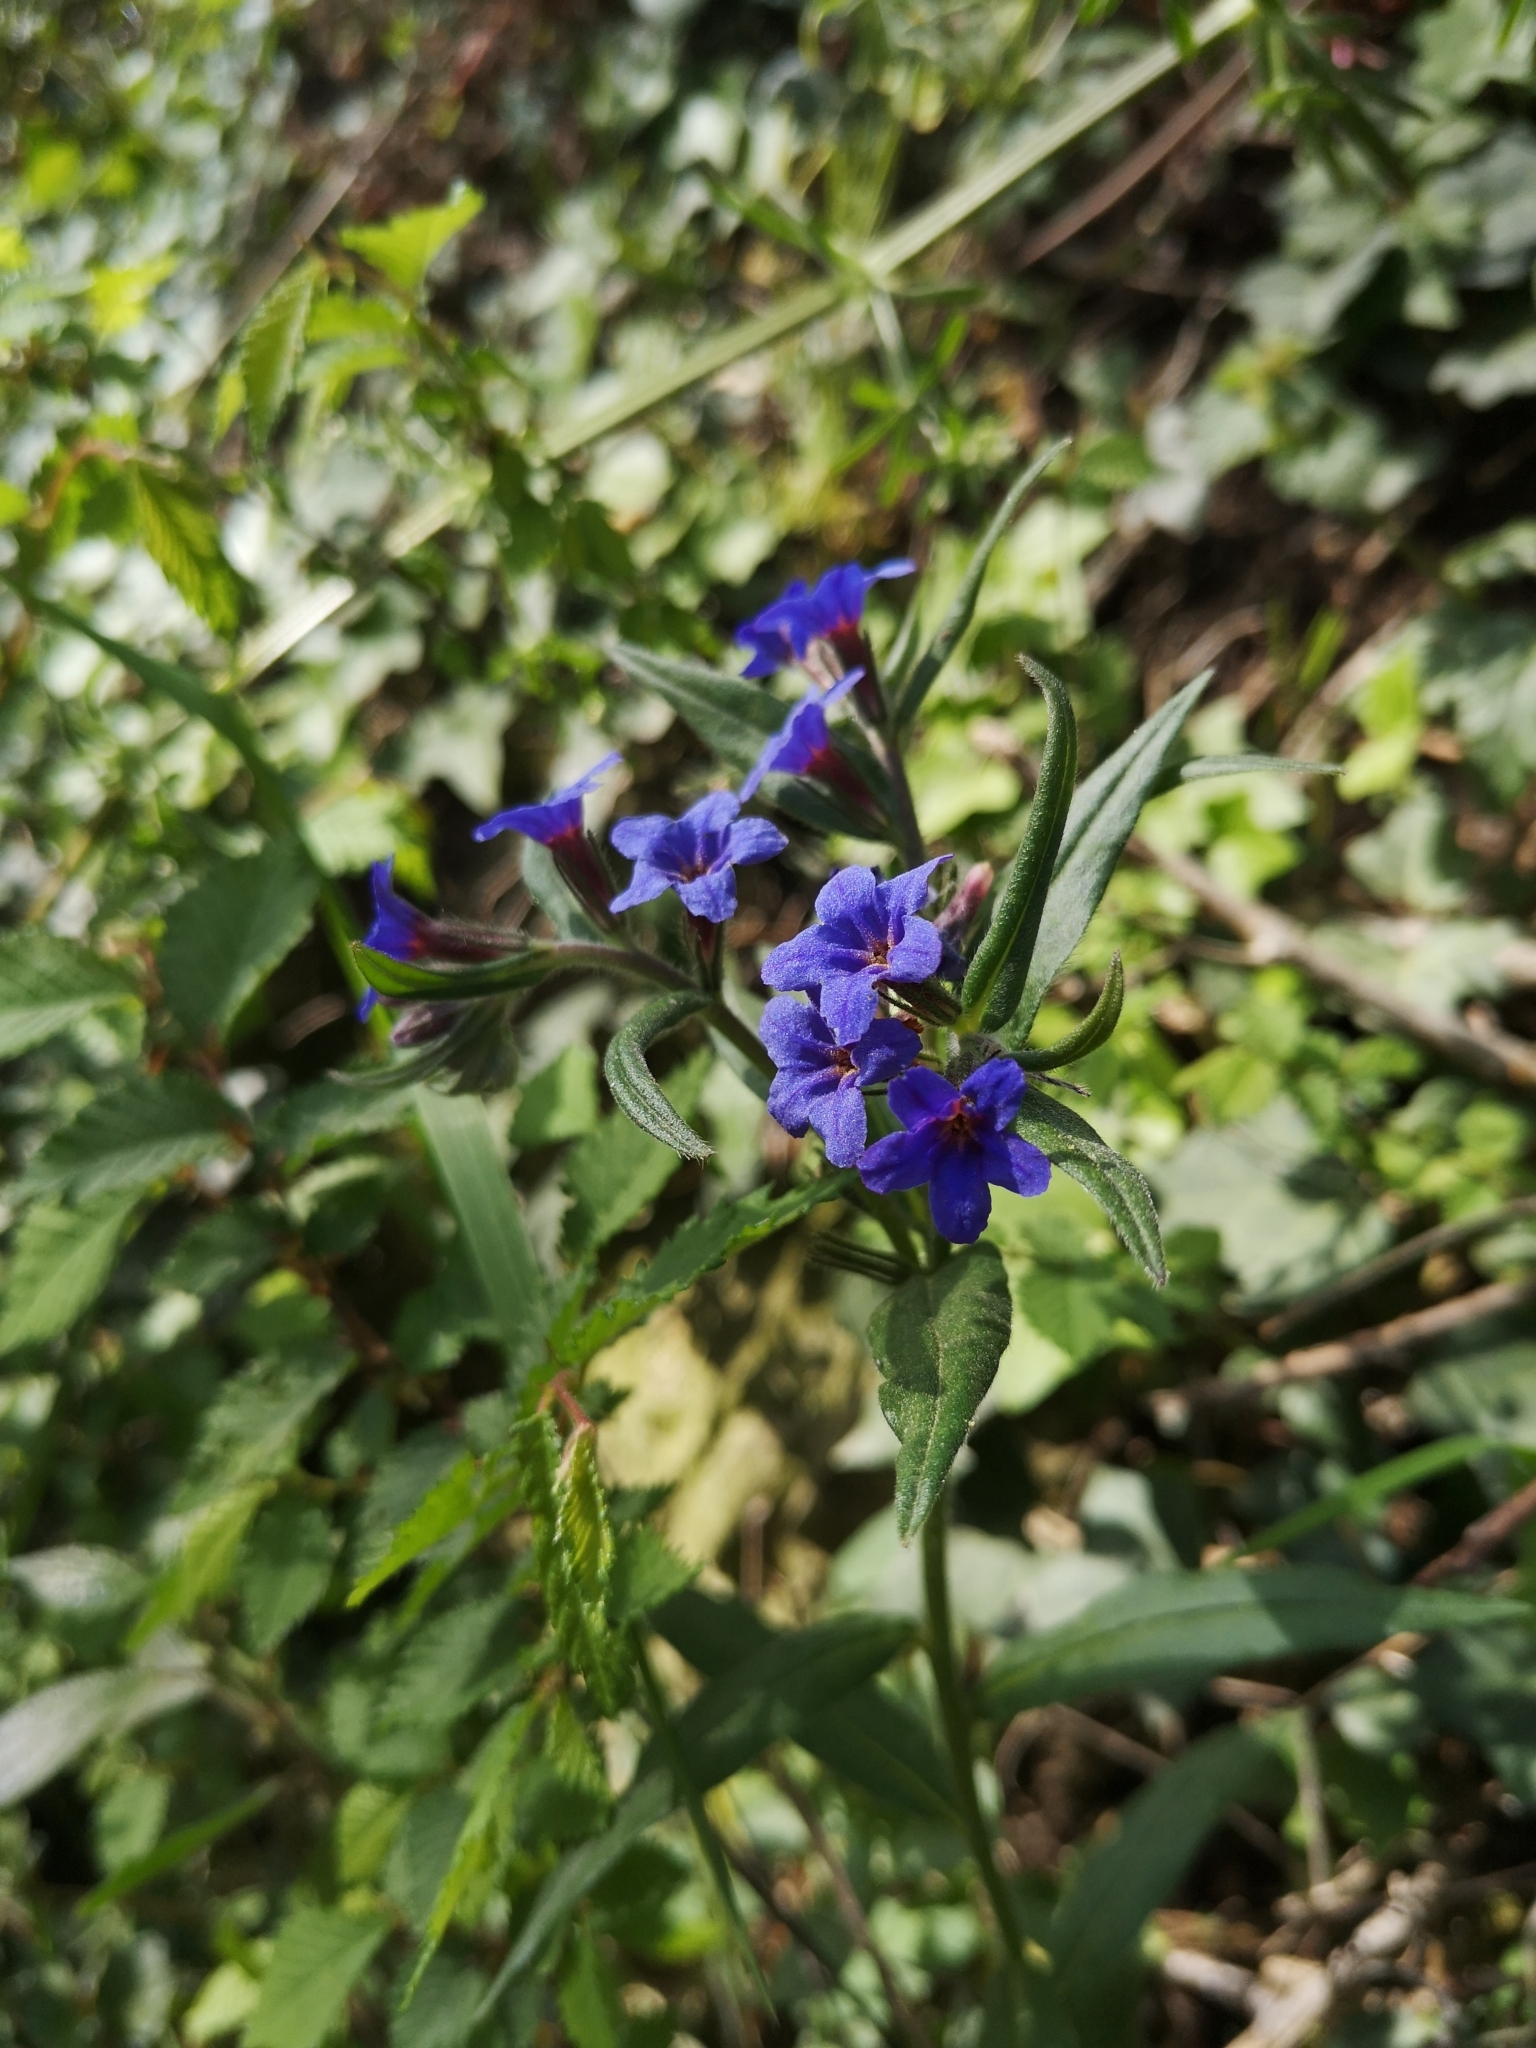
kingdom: Plantae
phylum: Tracheophyta
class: Magnoliopsida
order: Boraginales
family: Boraginaceae
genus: Aegonychon
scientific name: Aegonychon purpurocaeruleum
